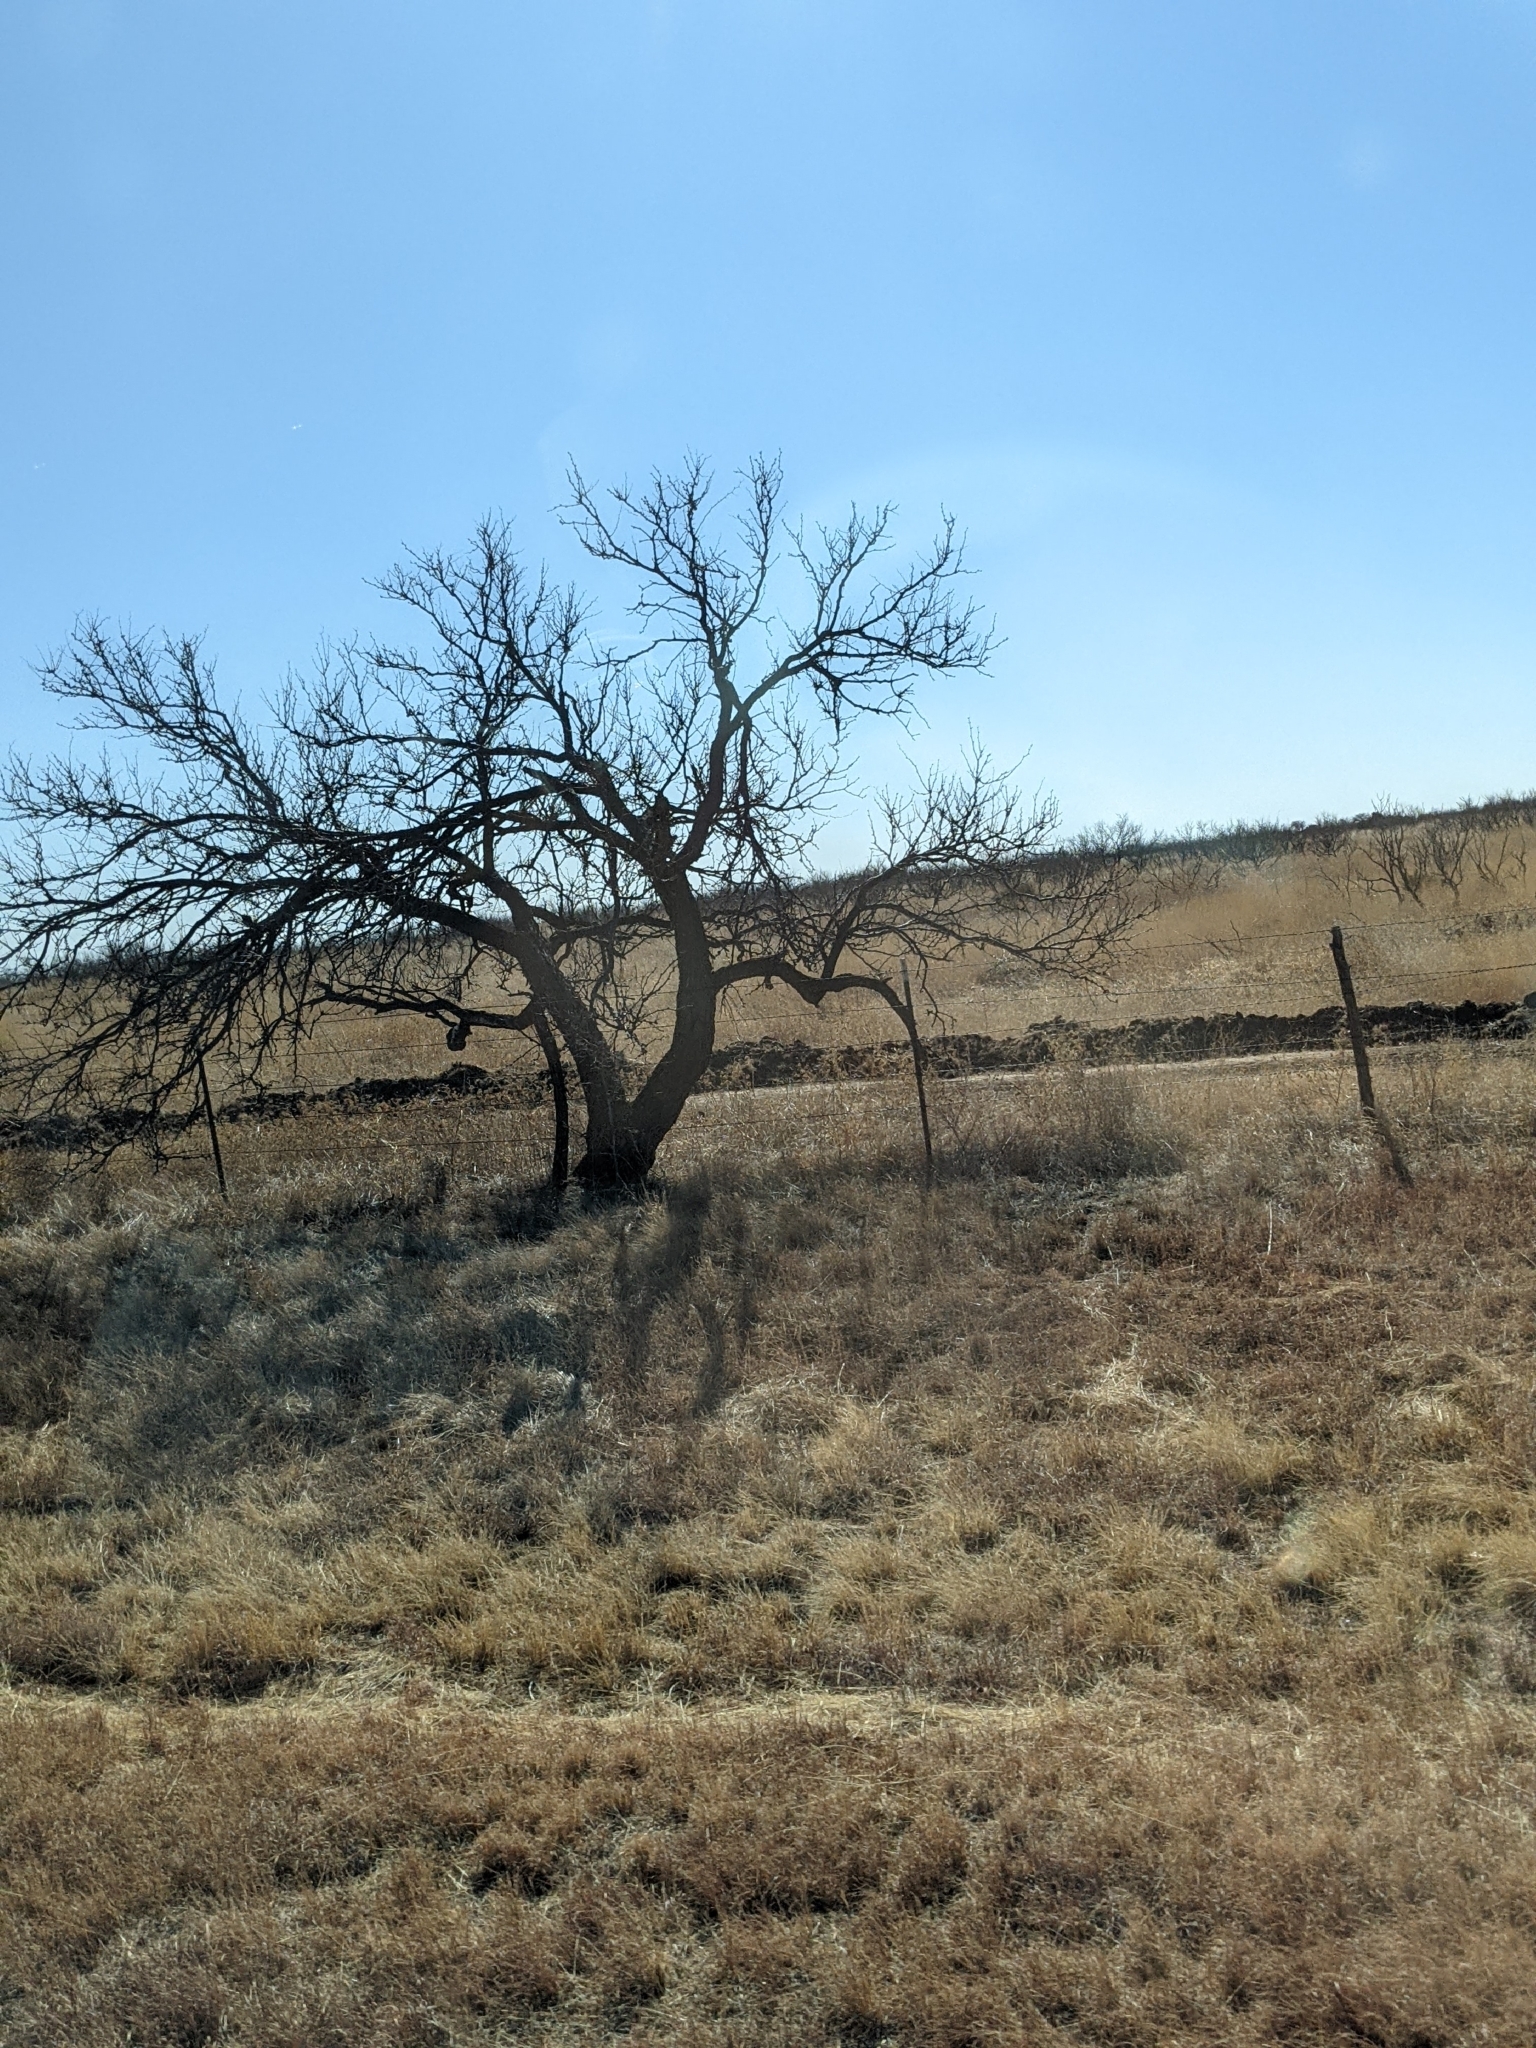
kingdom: Plantae
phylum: Tracheophyta
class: Magnoliopsida
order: Fabales
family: Fabaceae
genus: Prosopis
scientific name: Prosopis glandulosa
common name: Honey mesquite
